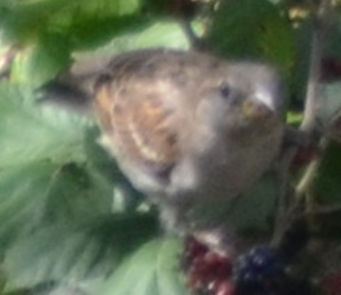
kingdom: Animalia
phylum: Chordata
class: Aves
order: Passeriformes
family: Passeridae
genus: Passer
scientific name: Passer domesticus
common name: House sparrow
